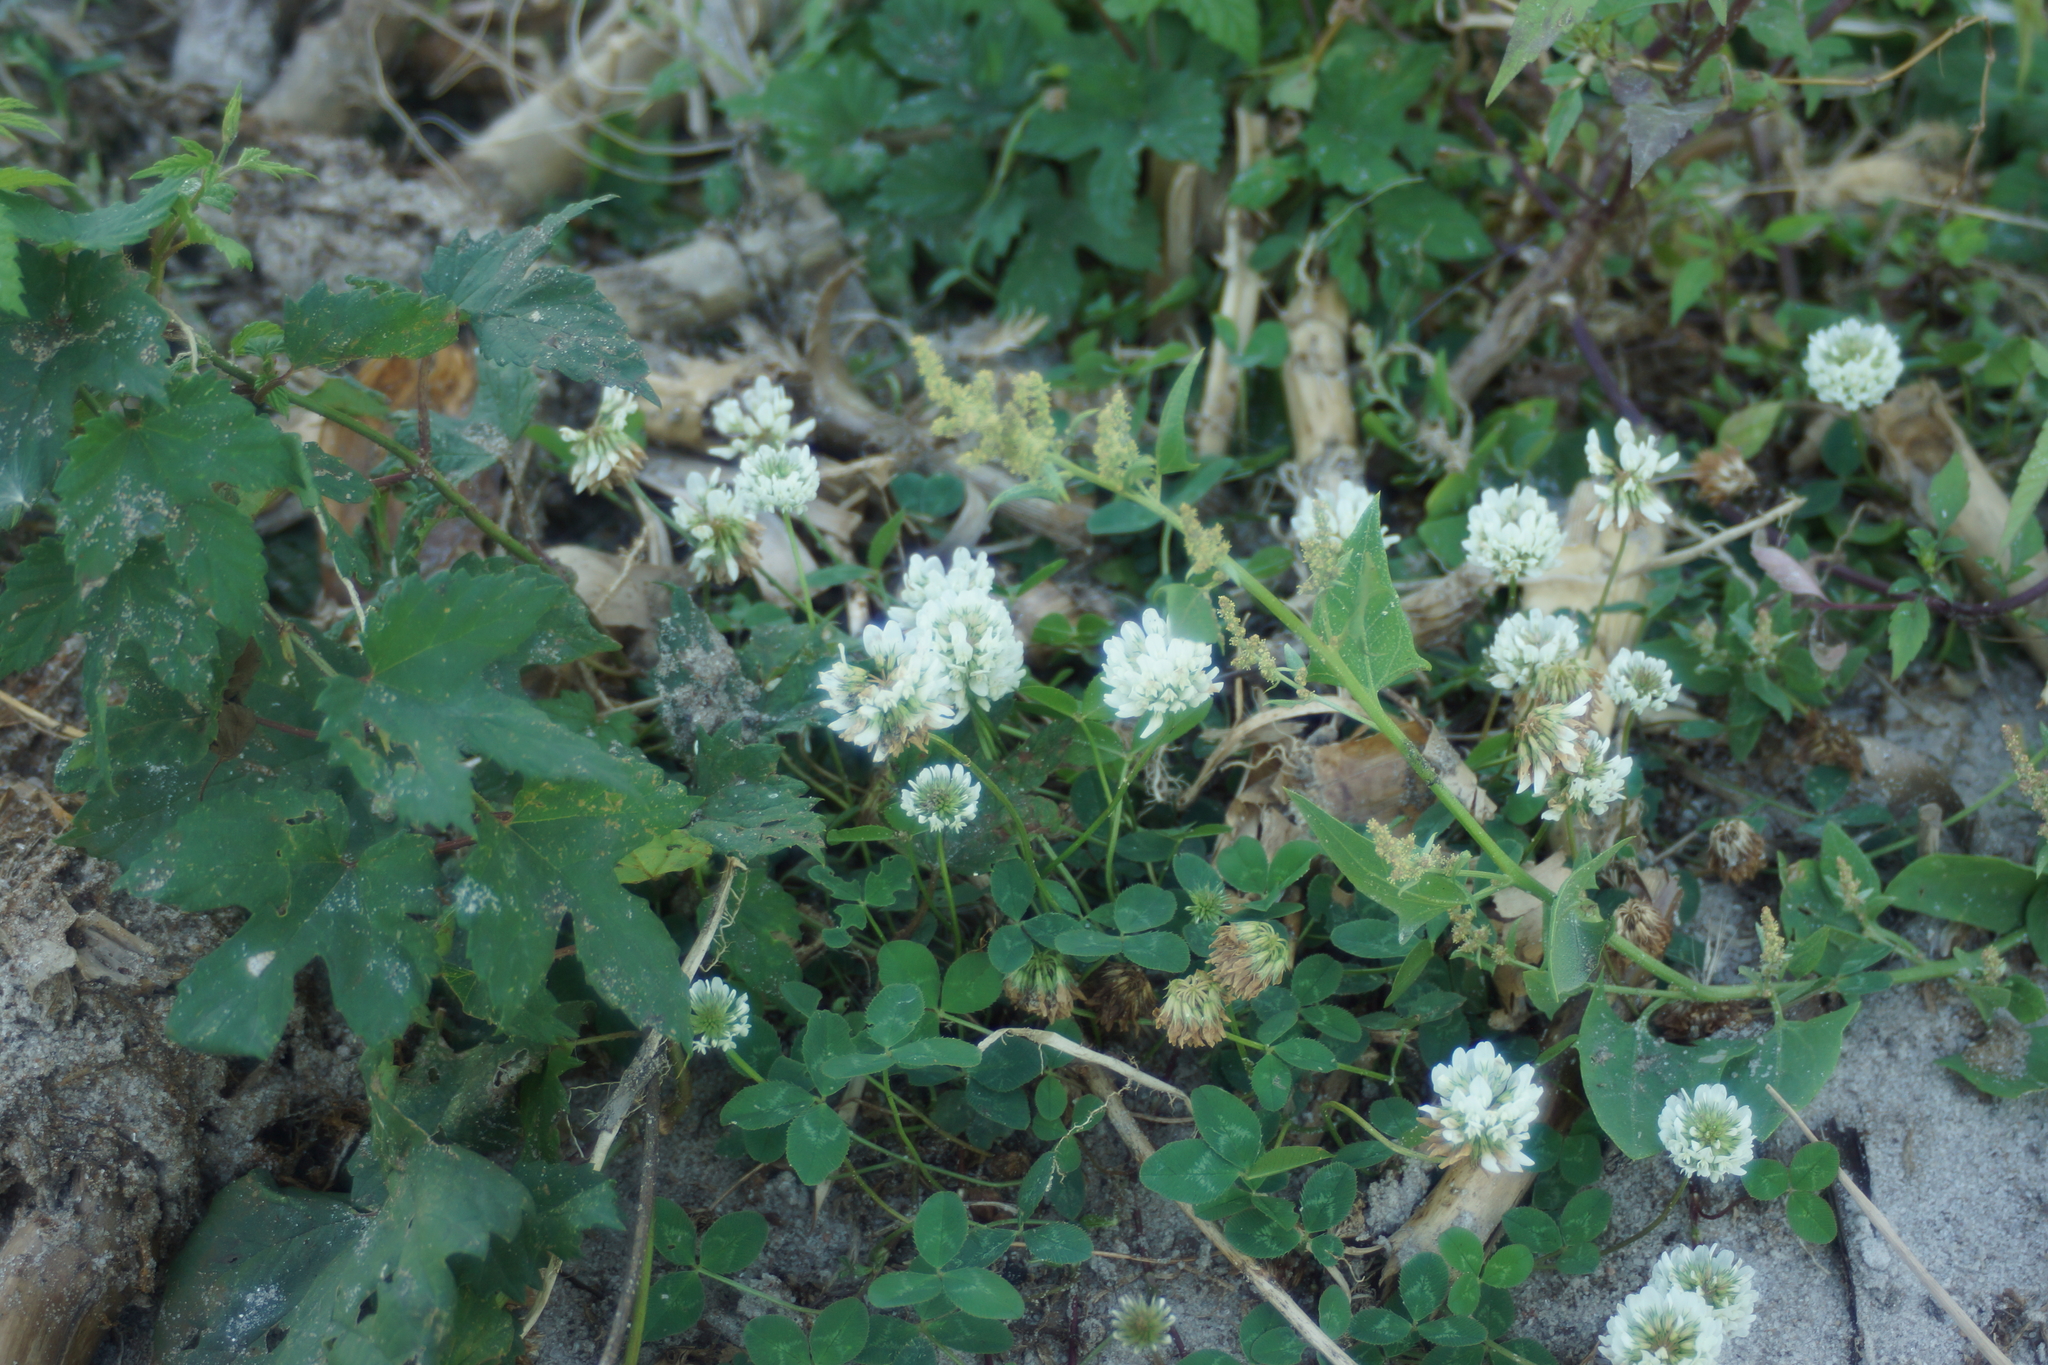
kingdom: Plantae
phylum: Tracheophyta
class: Magnoliopsida
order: Fabales
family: Fabaceae
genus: Trifolium
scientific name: Trifolium repens
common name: White clover
